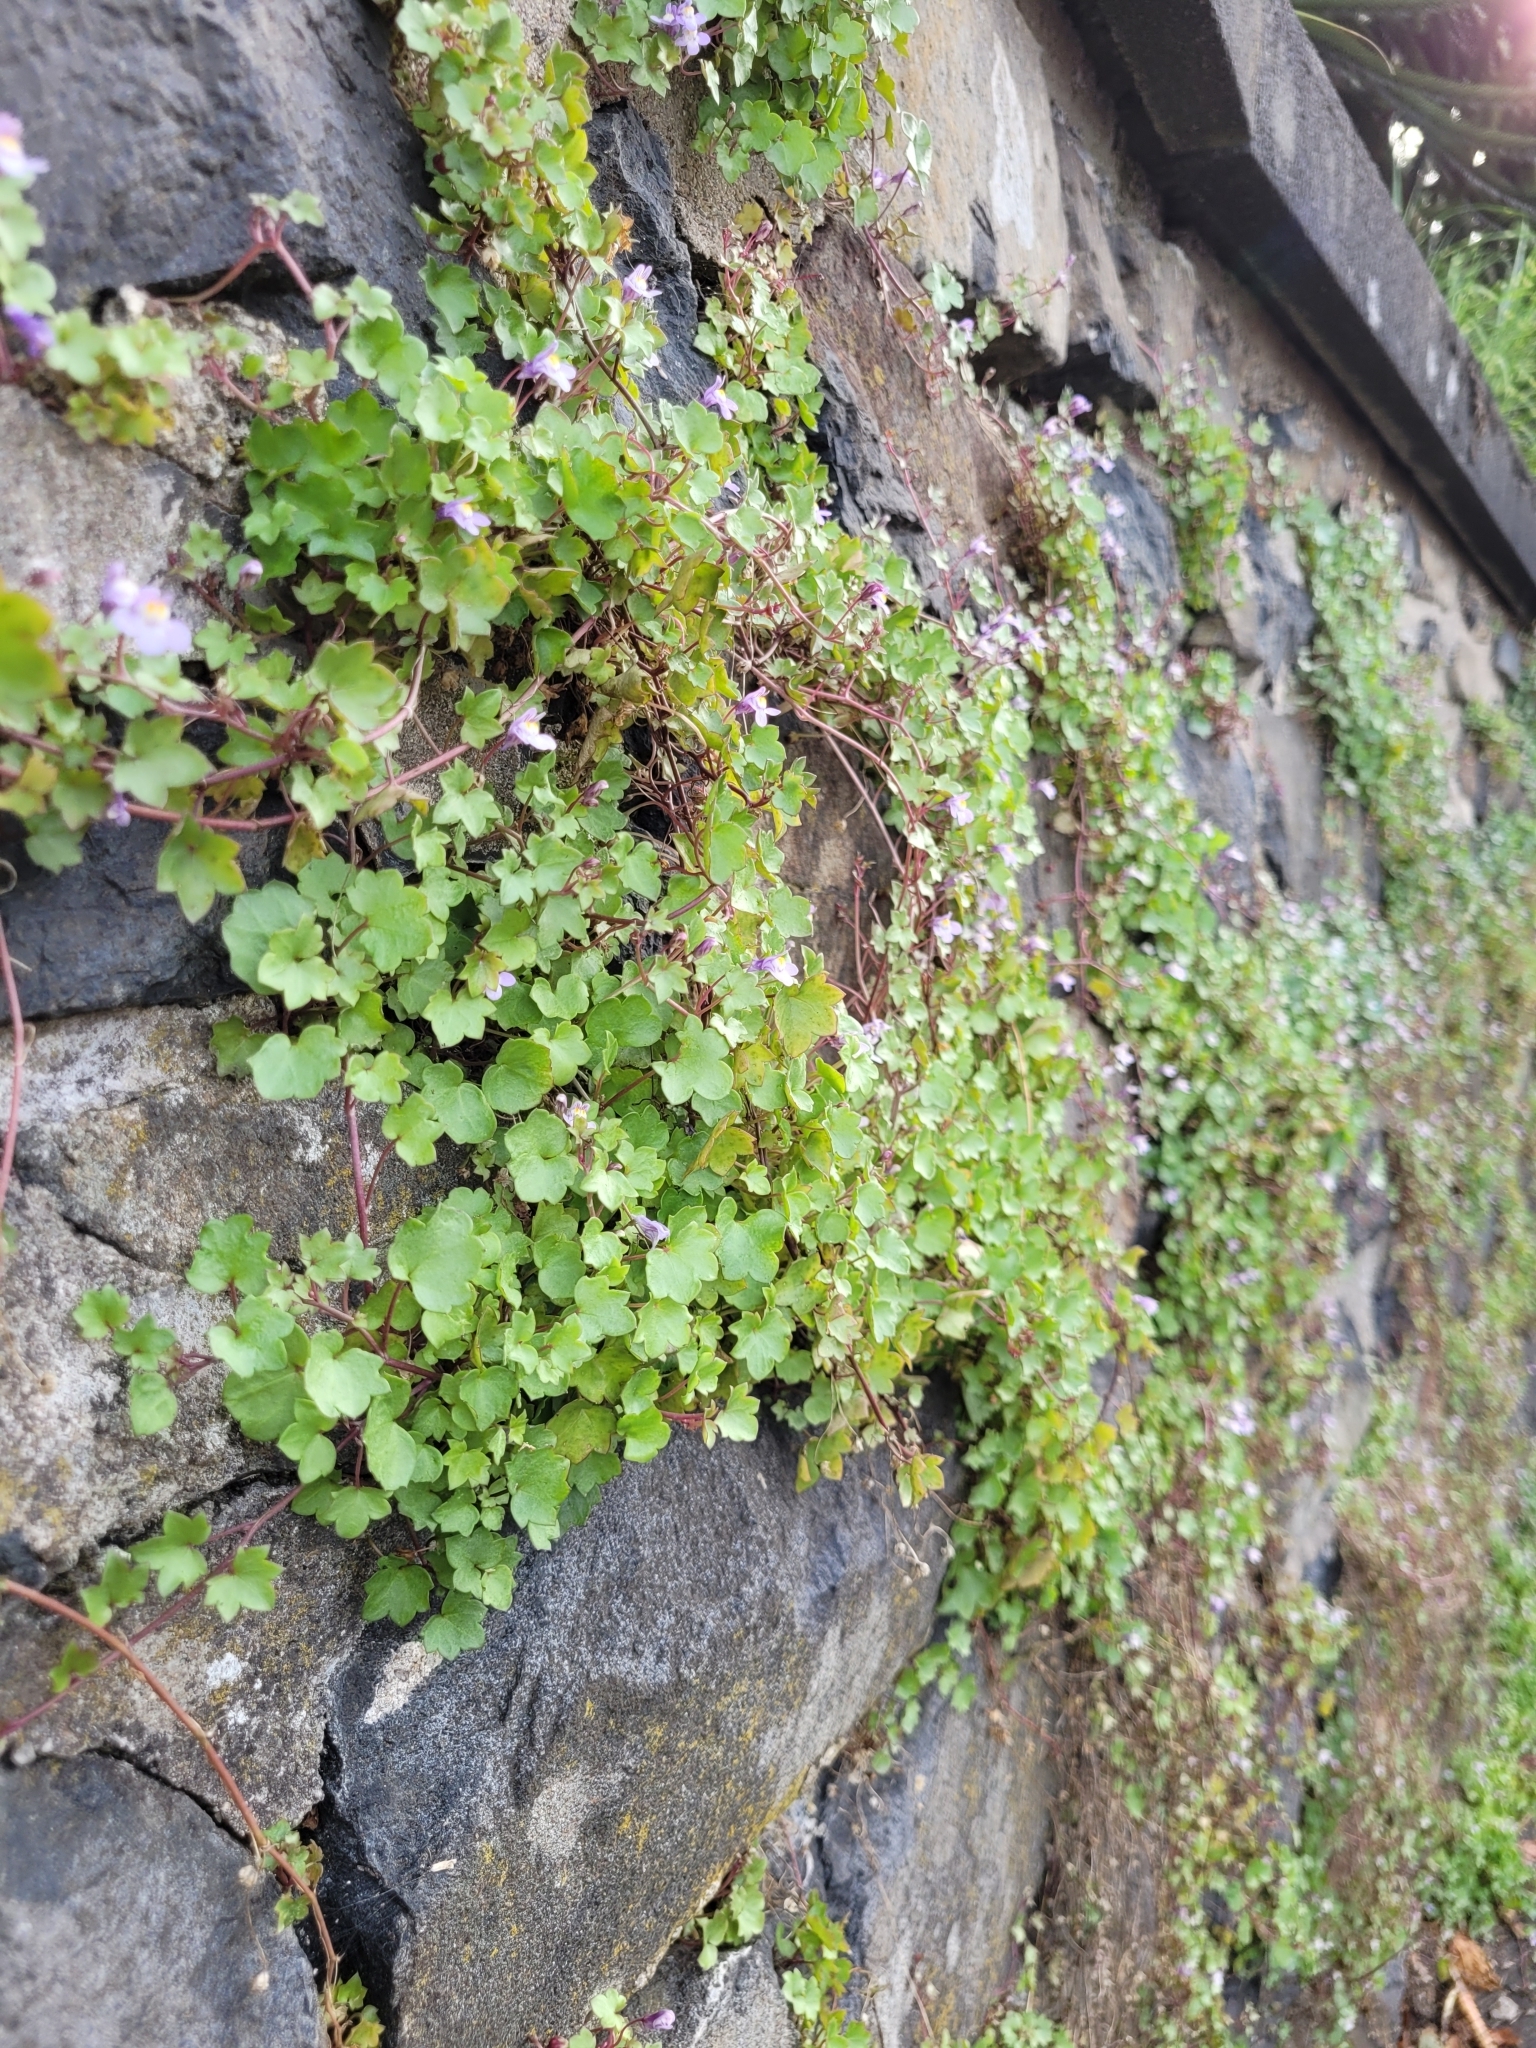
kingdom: Plantae
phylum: Tracheophyta
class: Magnoliopsida
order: Lamiales
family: Plantaginaceae
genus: Cymbalaria
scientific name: Cymbalaria muralis
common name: Ivy-leaved toadflax
